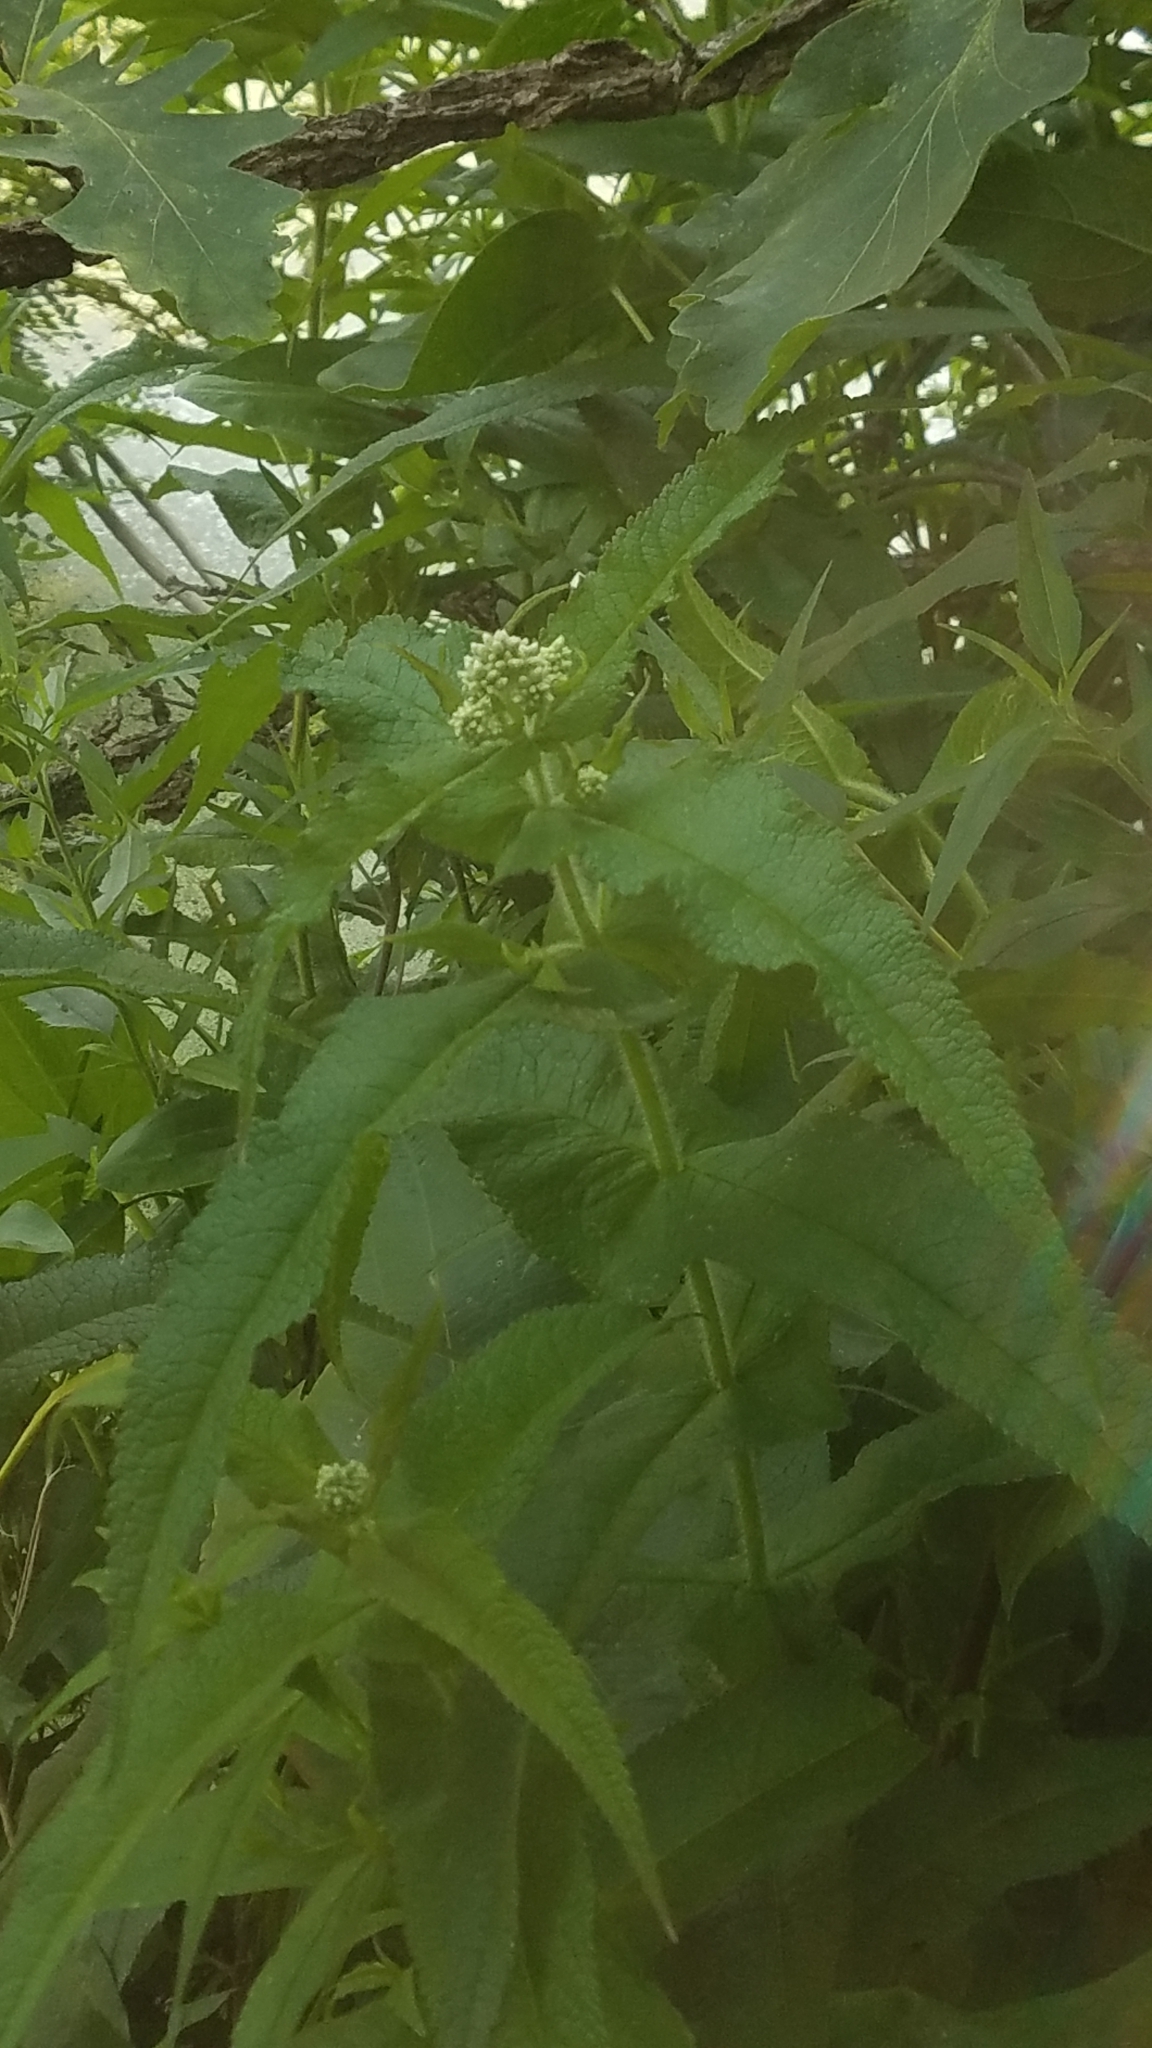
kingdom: Plantae
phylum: Tracheophyta
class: Magnoliopsida
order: Asterales
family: Asteraceae
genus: Eupatorium
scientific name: Eupatorium perfoliatum
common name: Boneset
